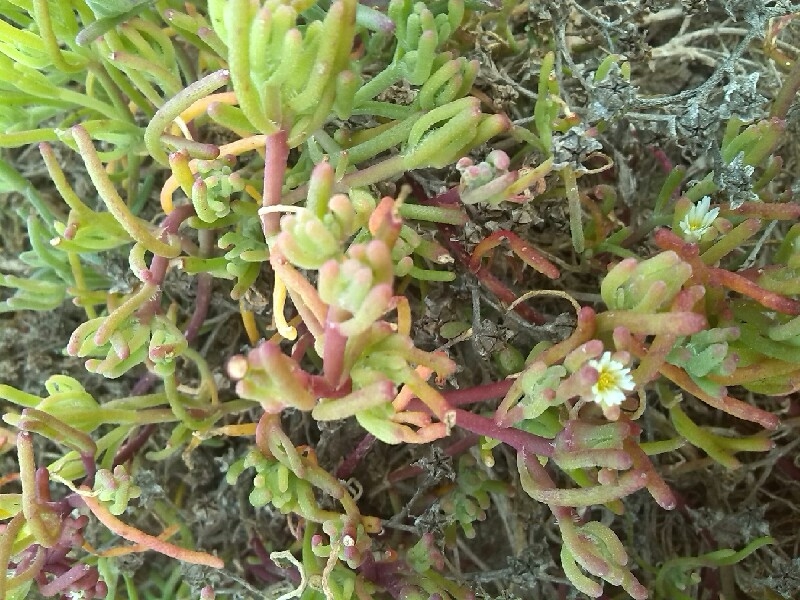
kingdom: Plantae
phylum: Tracheophyta
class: Magnoliopsida
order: Caryophyllales
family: Aizoaceae
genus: Mesembryanthemum
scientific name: Mesembryanthemum nodiflorum
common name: Slenderleaf iceplant
